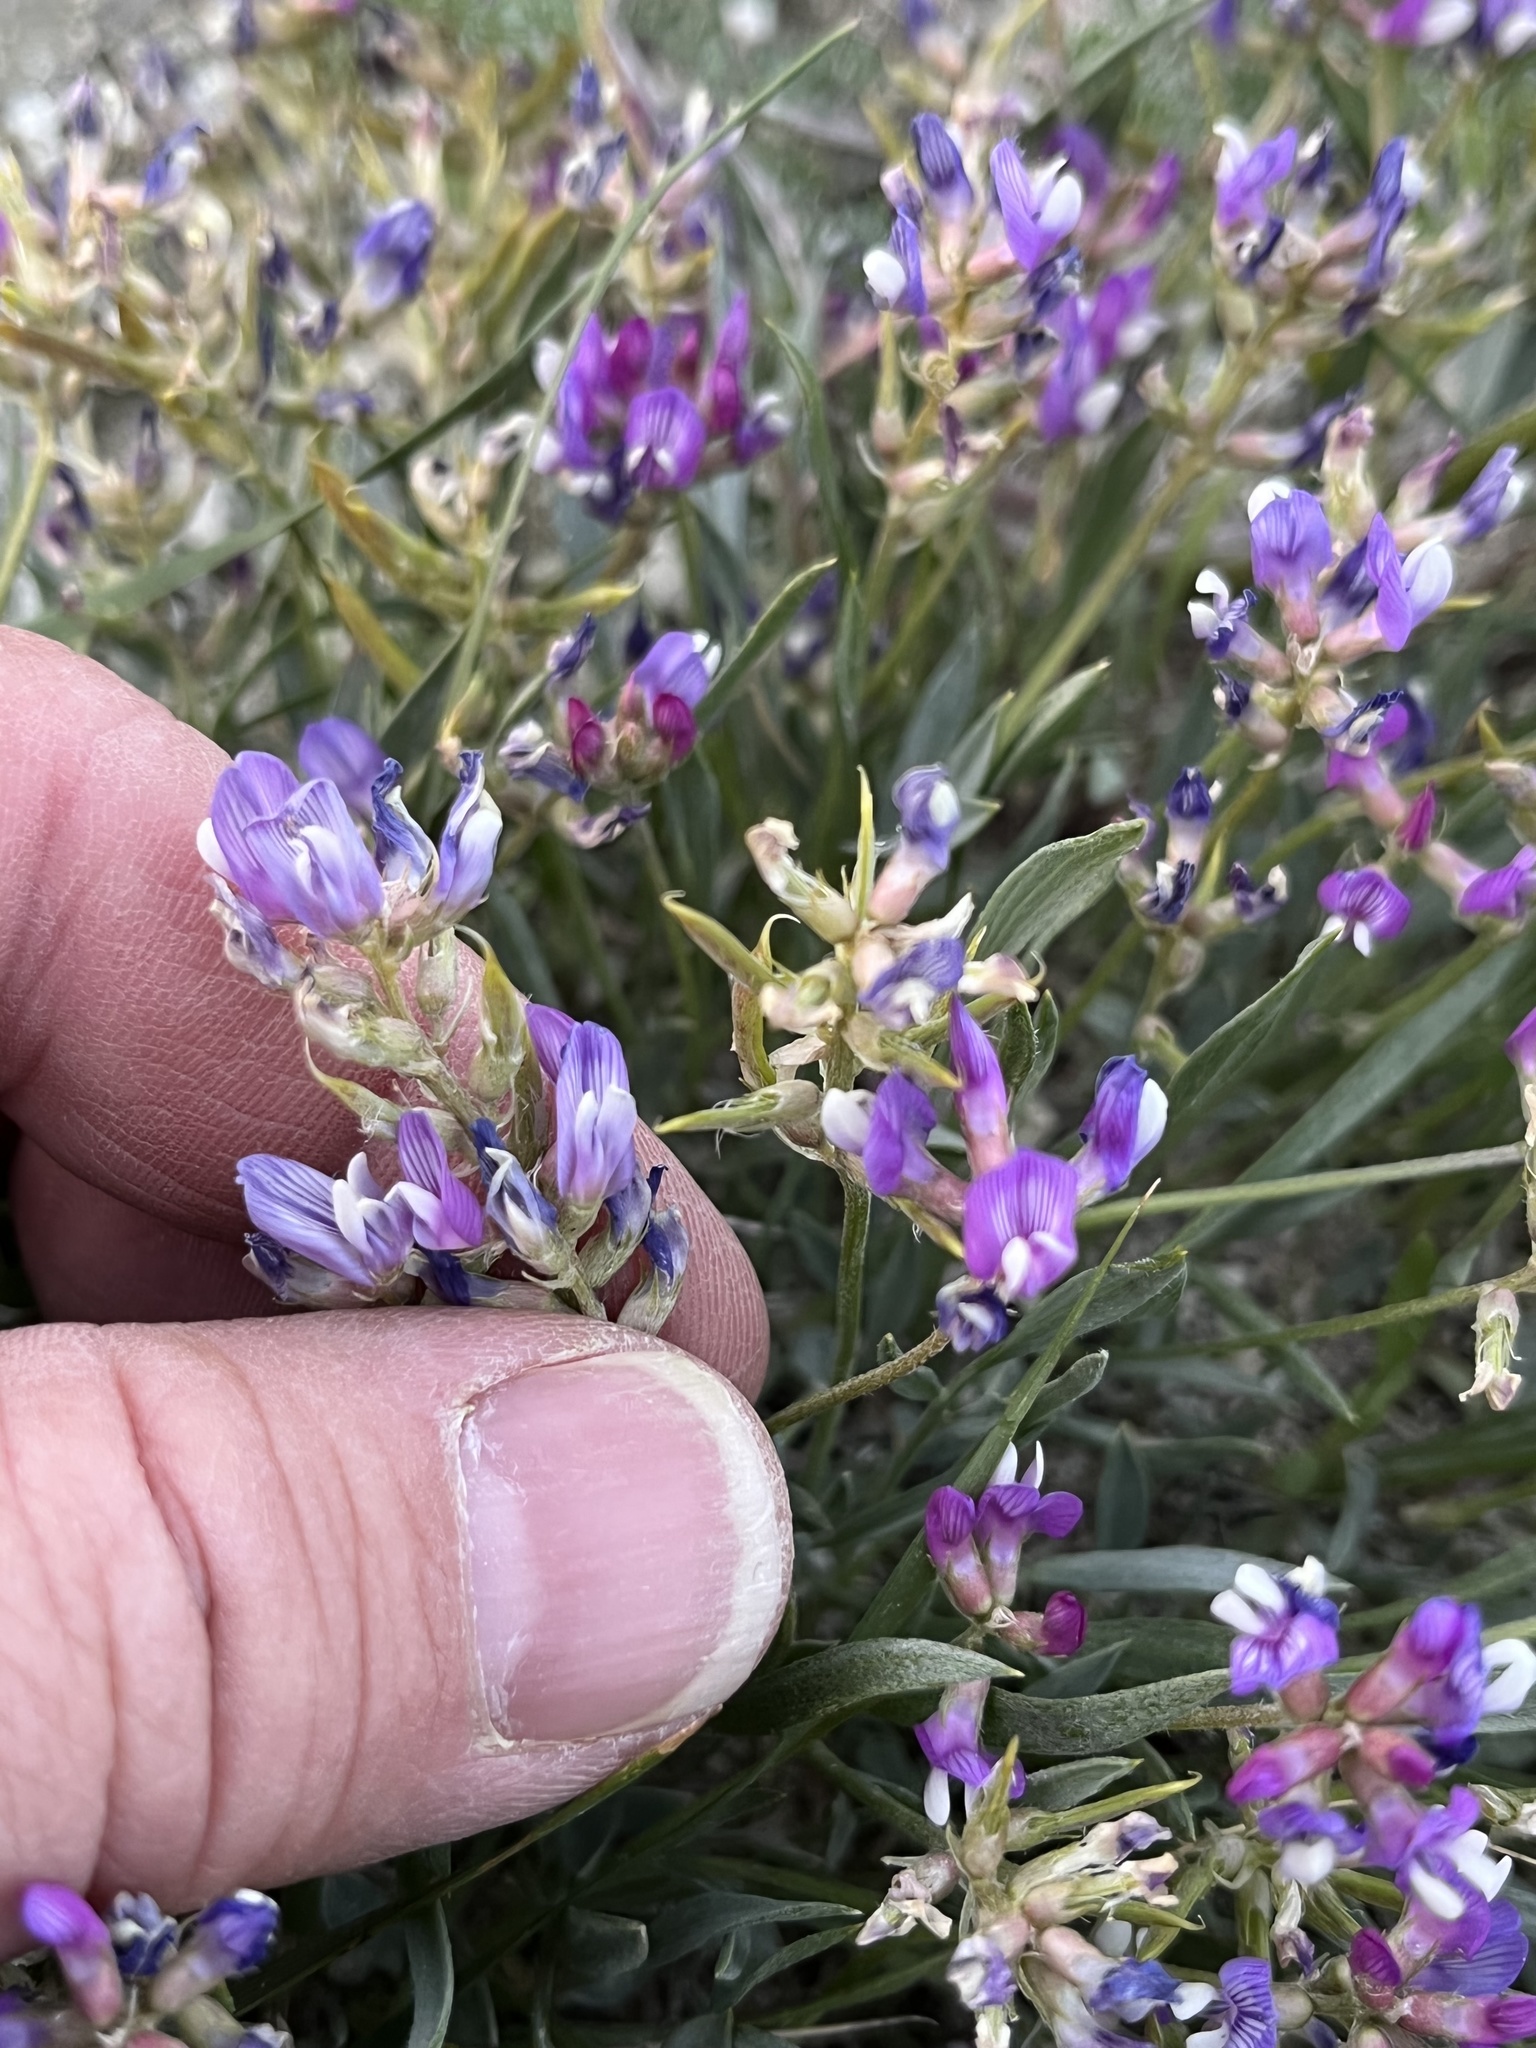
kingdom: Plantae
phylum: Tracheophyta
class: Magnoliopsida
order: Fabales
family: Fabaceae
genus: Astragalus
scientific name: Astragalus spatulatus
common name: Draba milk-vetch
